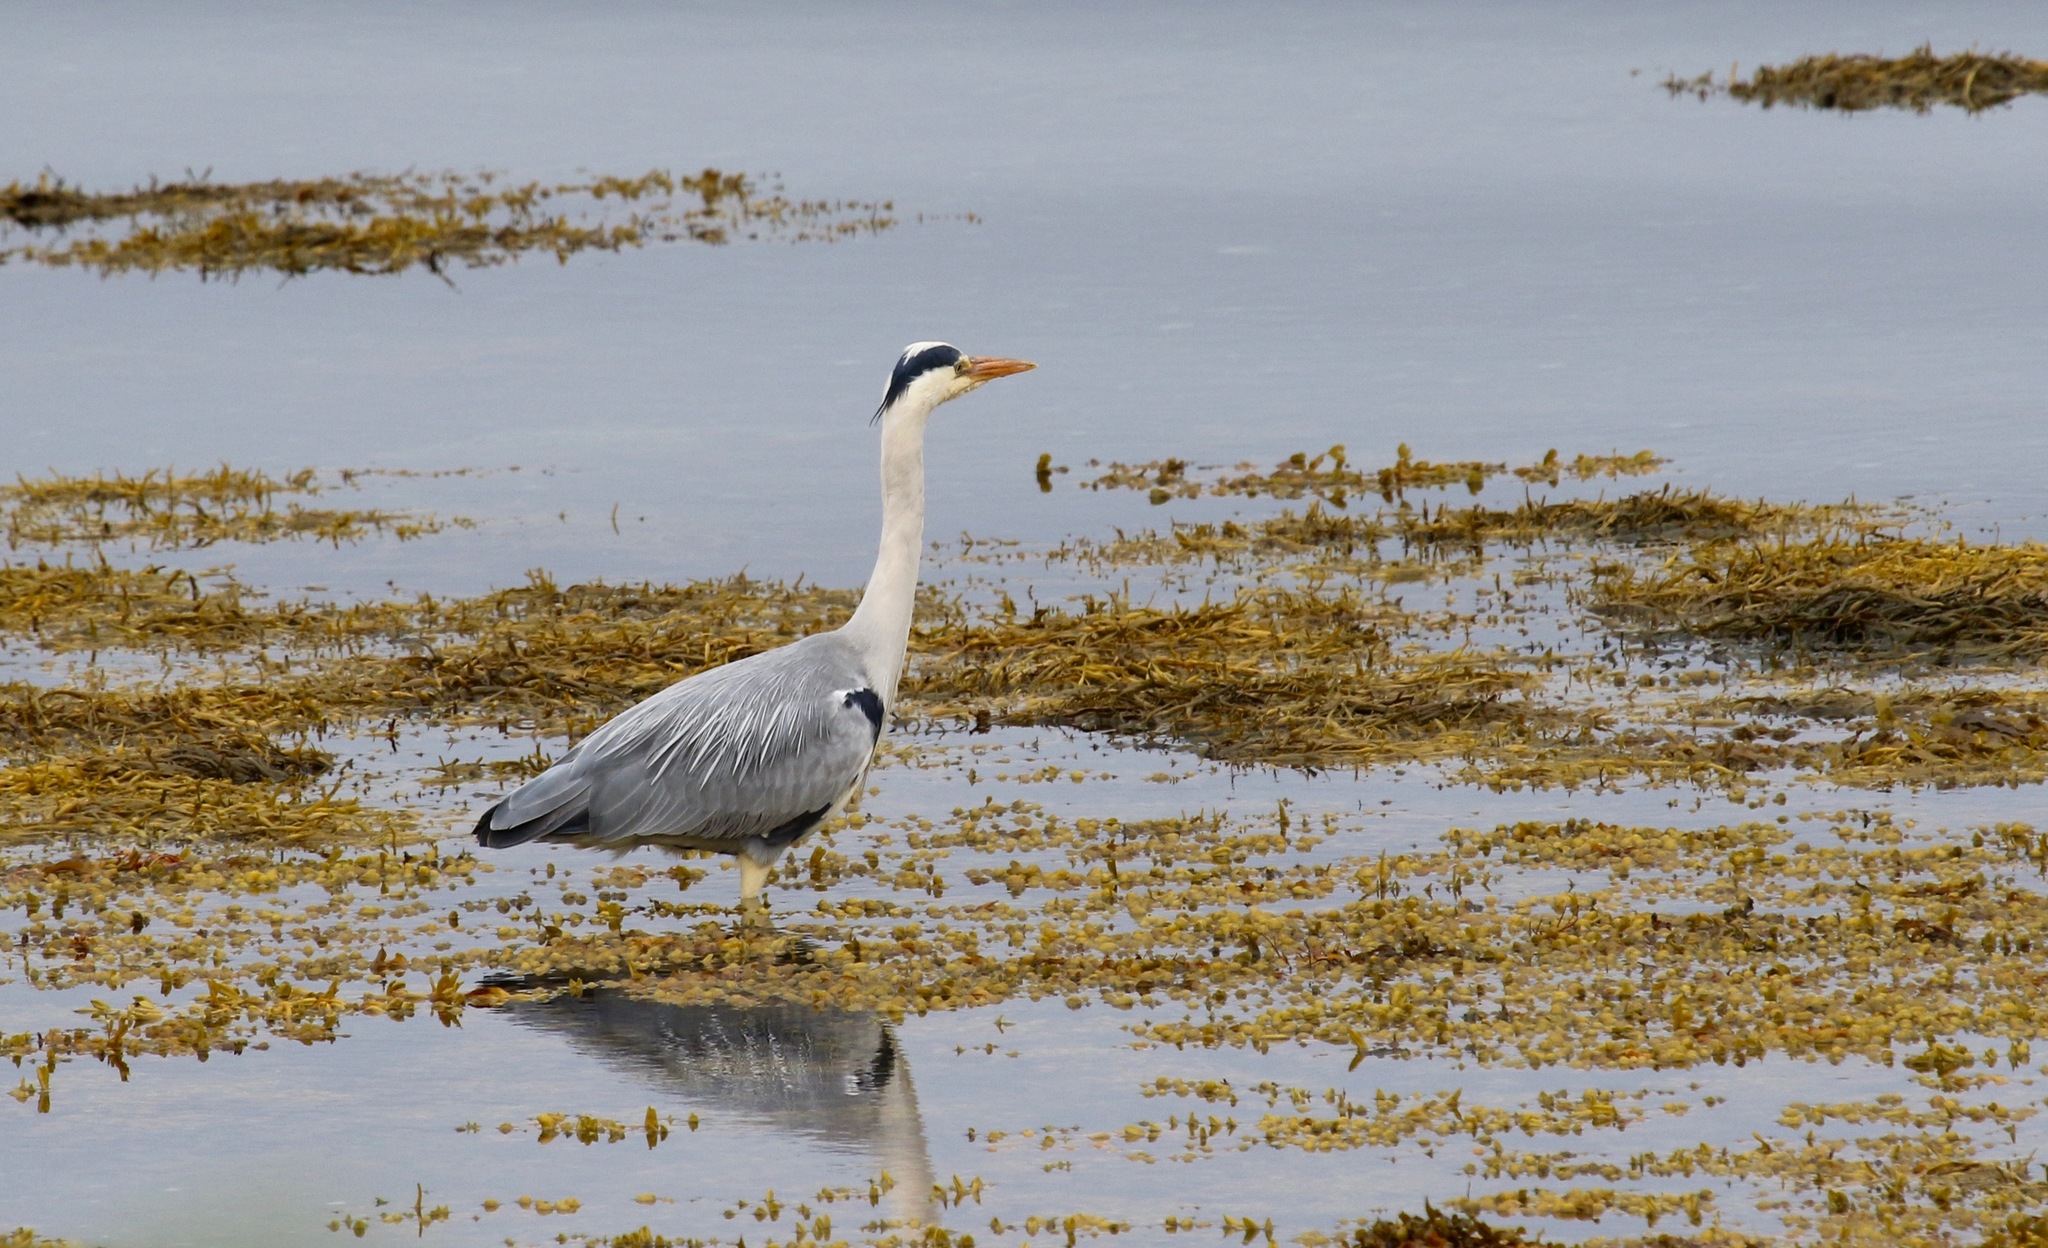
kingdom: Animalia
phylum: Chordata
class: Aves
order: Pelecaniformes
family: Ardeidae
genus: Ardea
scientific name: Ardea cinerea
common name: Grey heron
